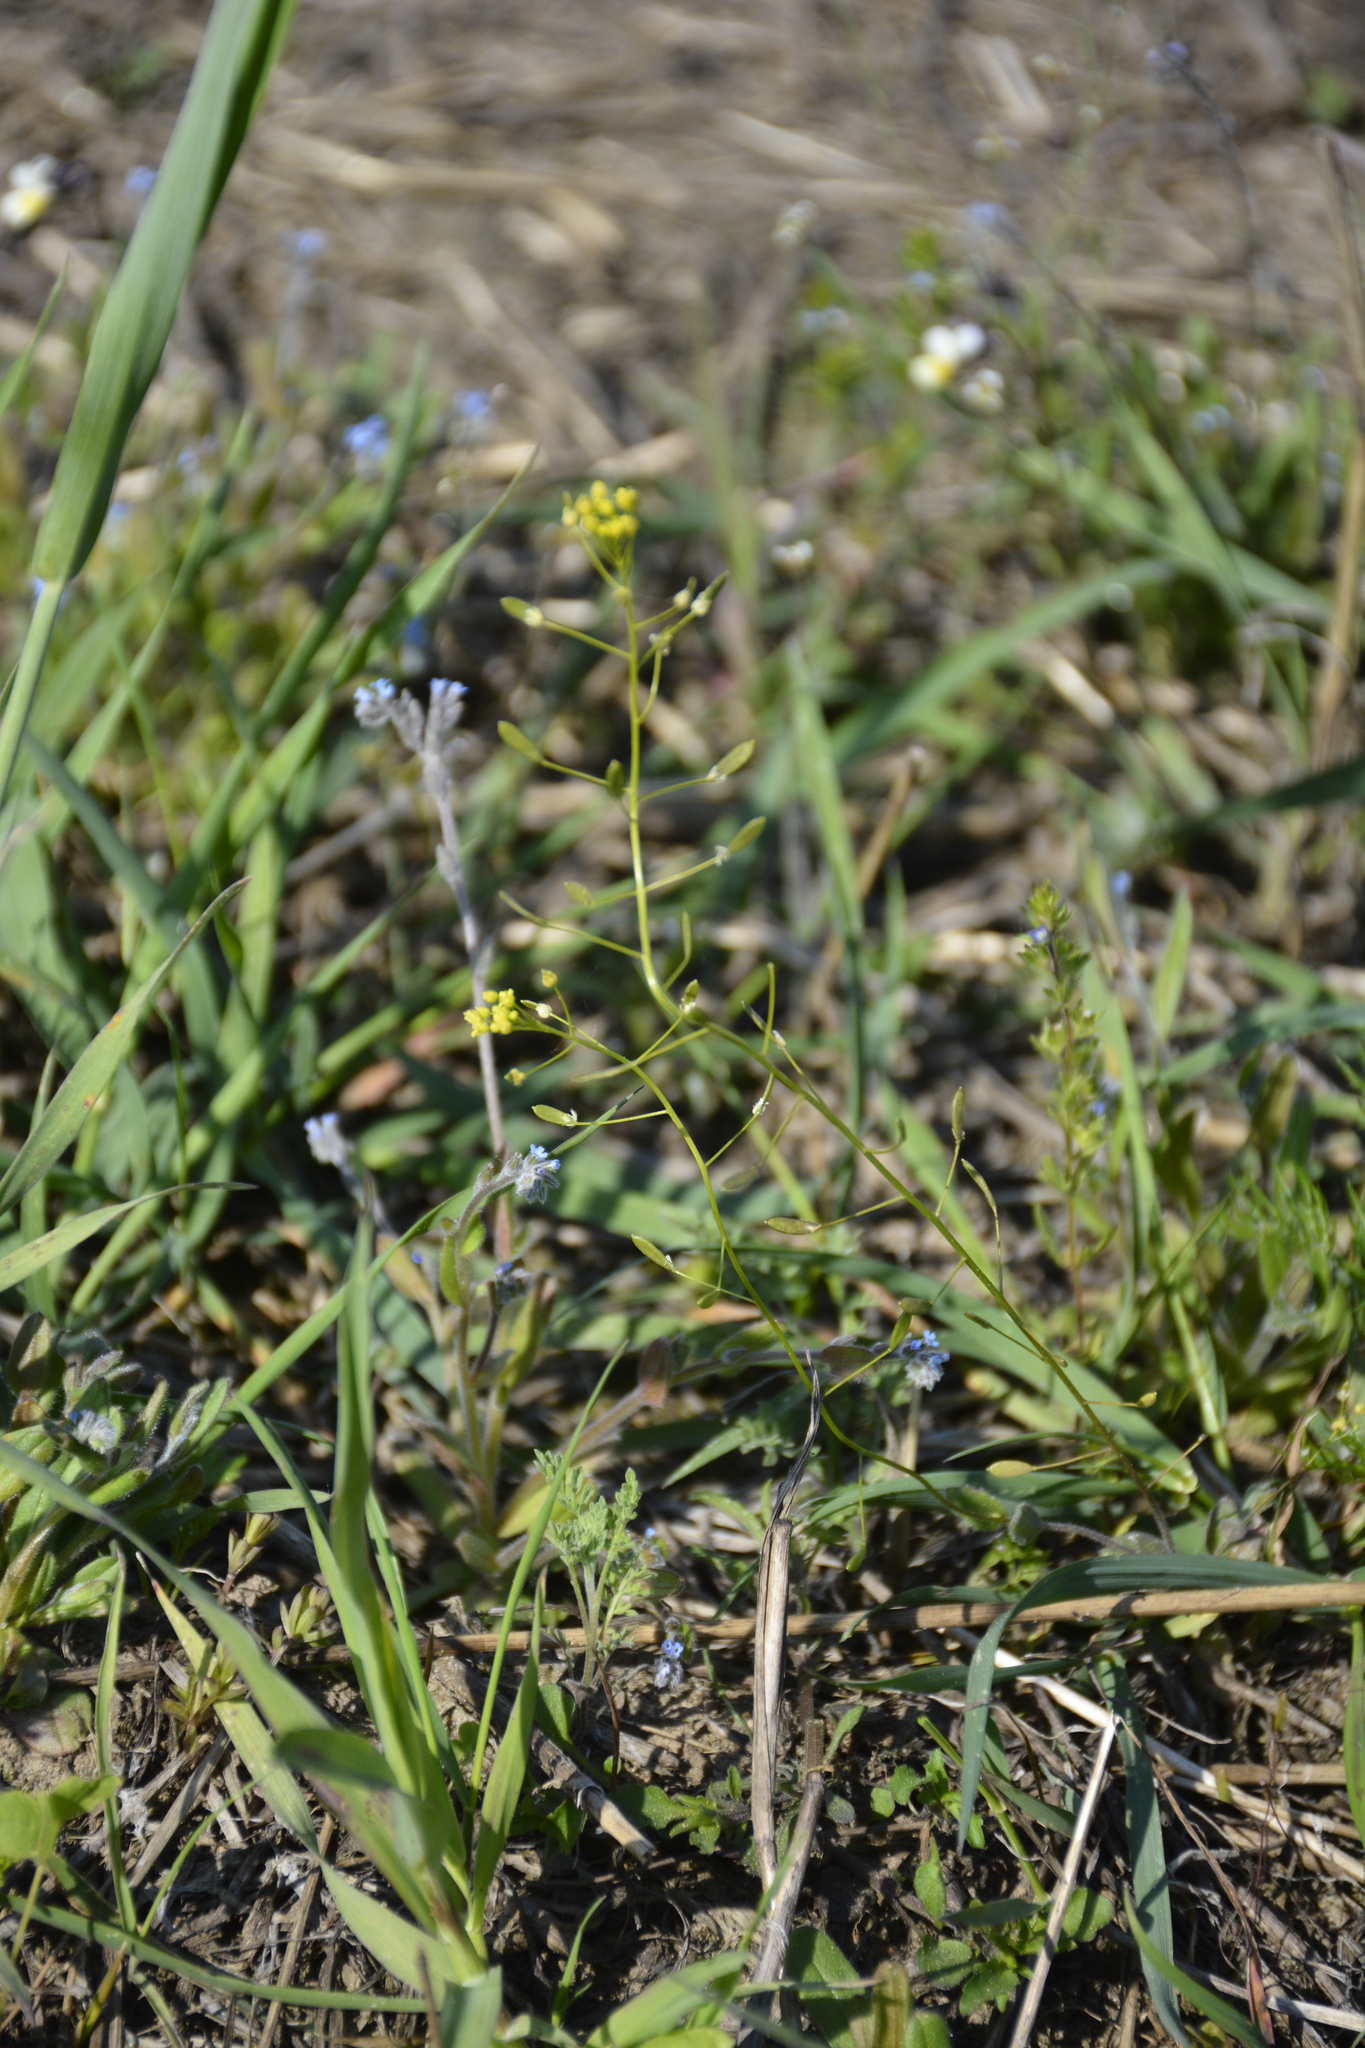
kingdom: Plantae
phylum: Tracheophyta
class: Magnoliopsida
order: Brassicales
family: Brassicaceae
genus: Draba
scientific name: Draba nemorosa
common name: Wood whitlow-grass
